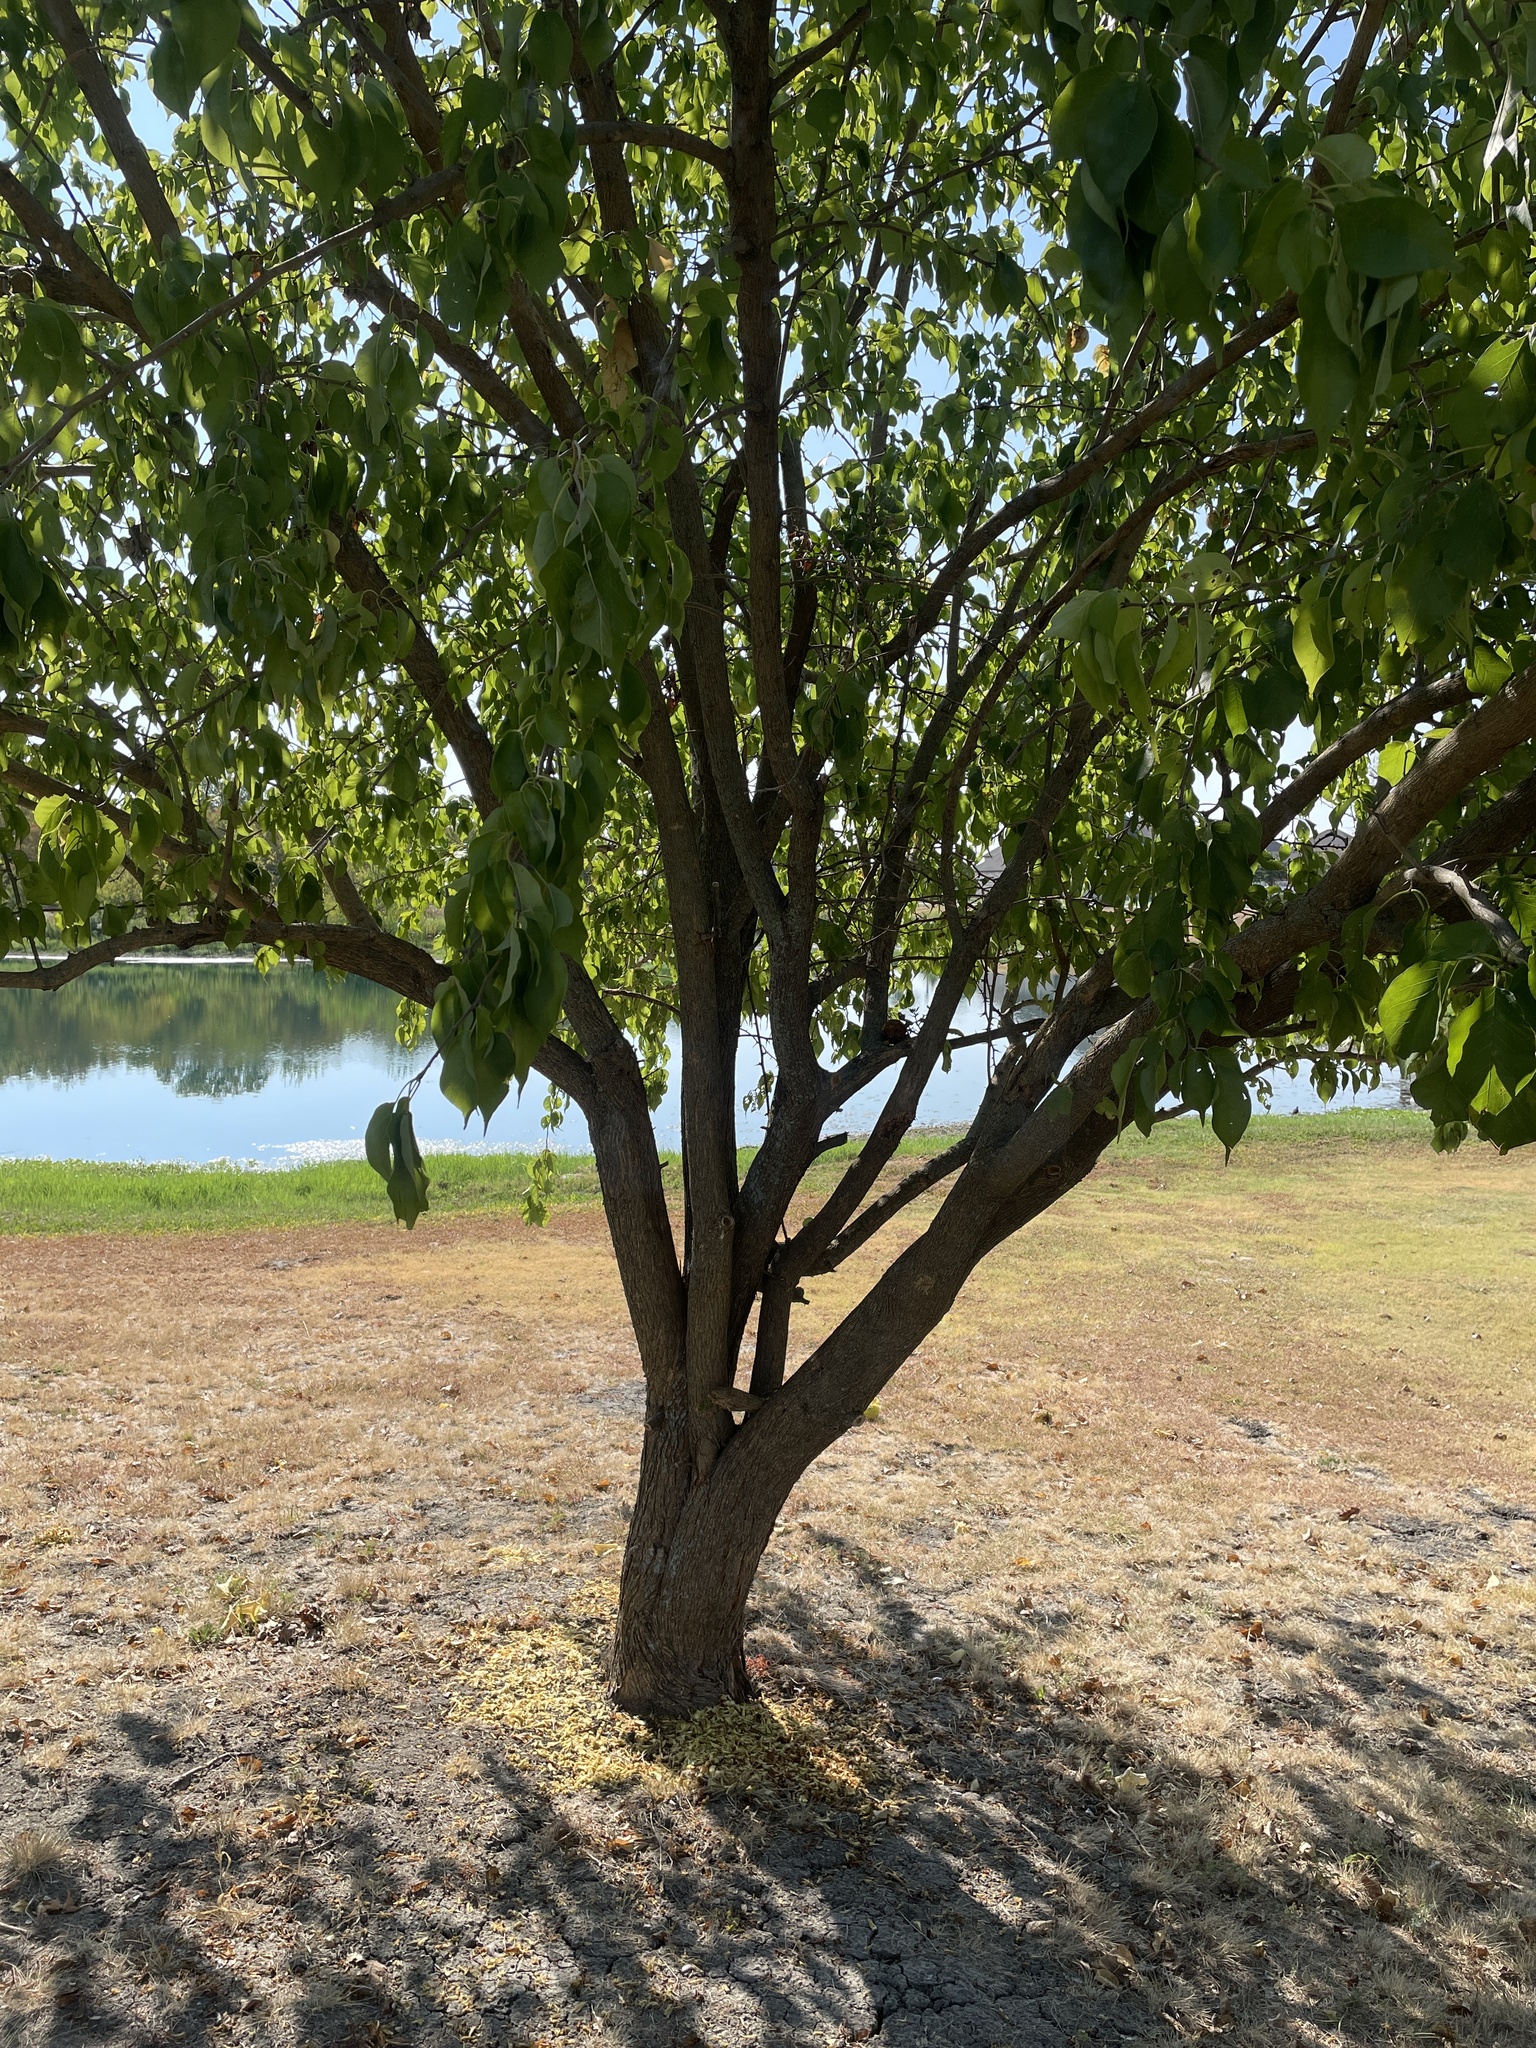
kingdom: Plantae
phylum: Tracheophyta
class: Magnoliopsida
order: Rosales
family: Moraceae
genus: Maclura
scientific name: Maclura pomifera
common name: Osage-orange
